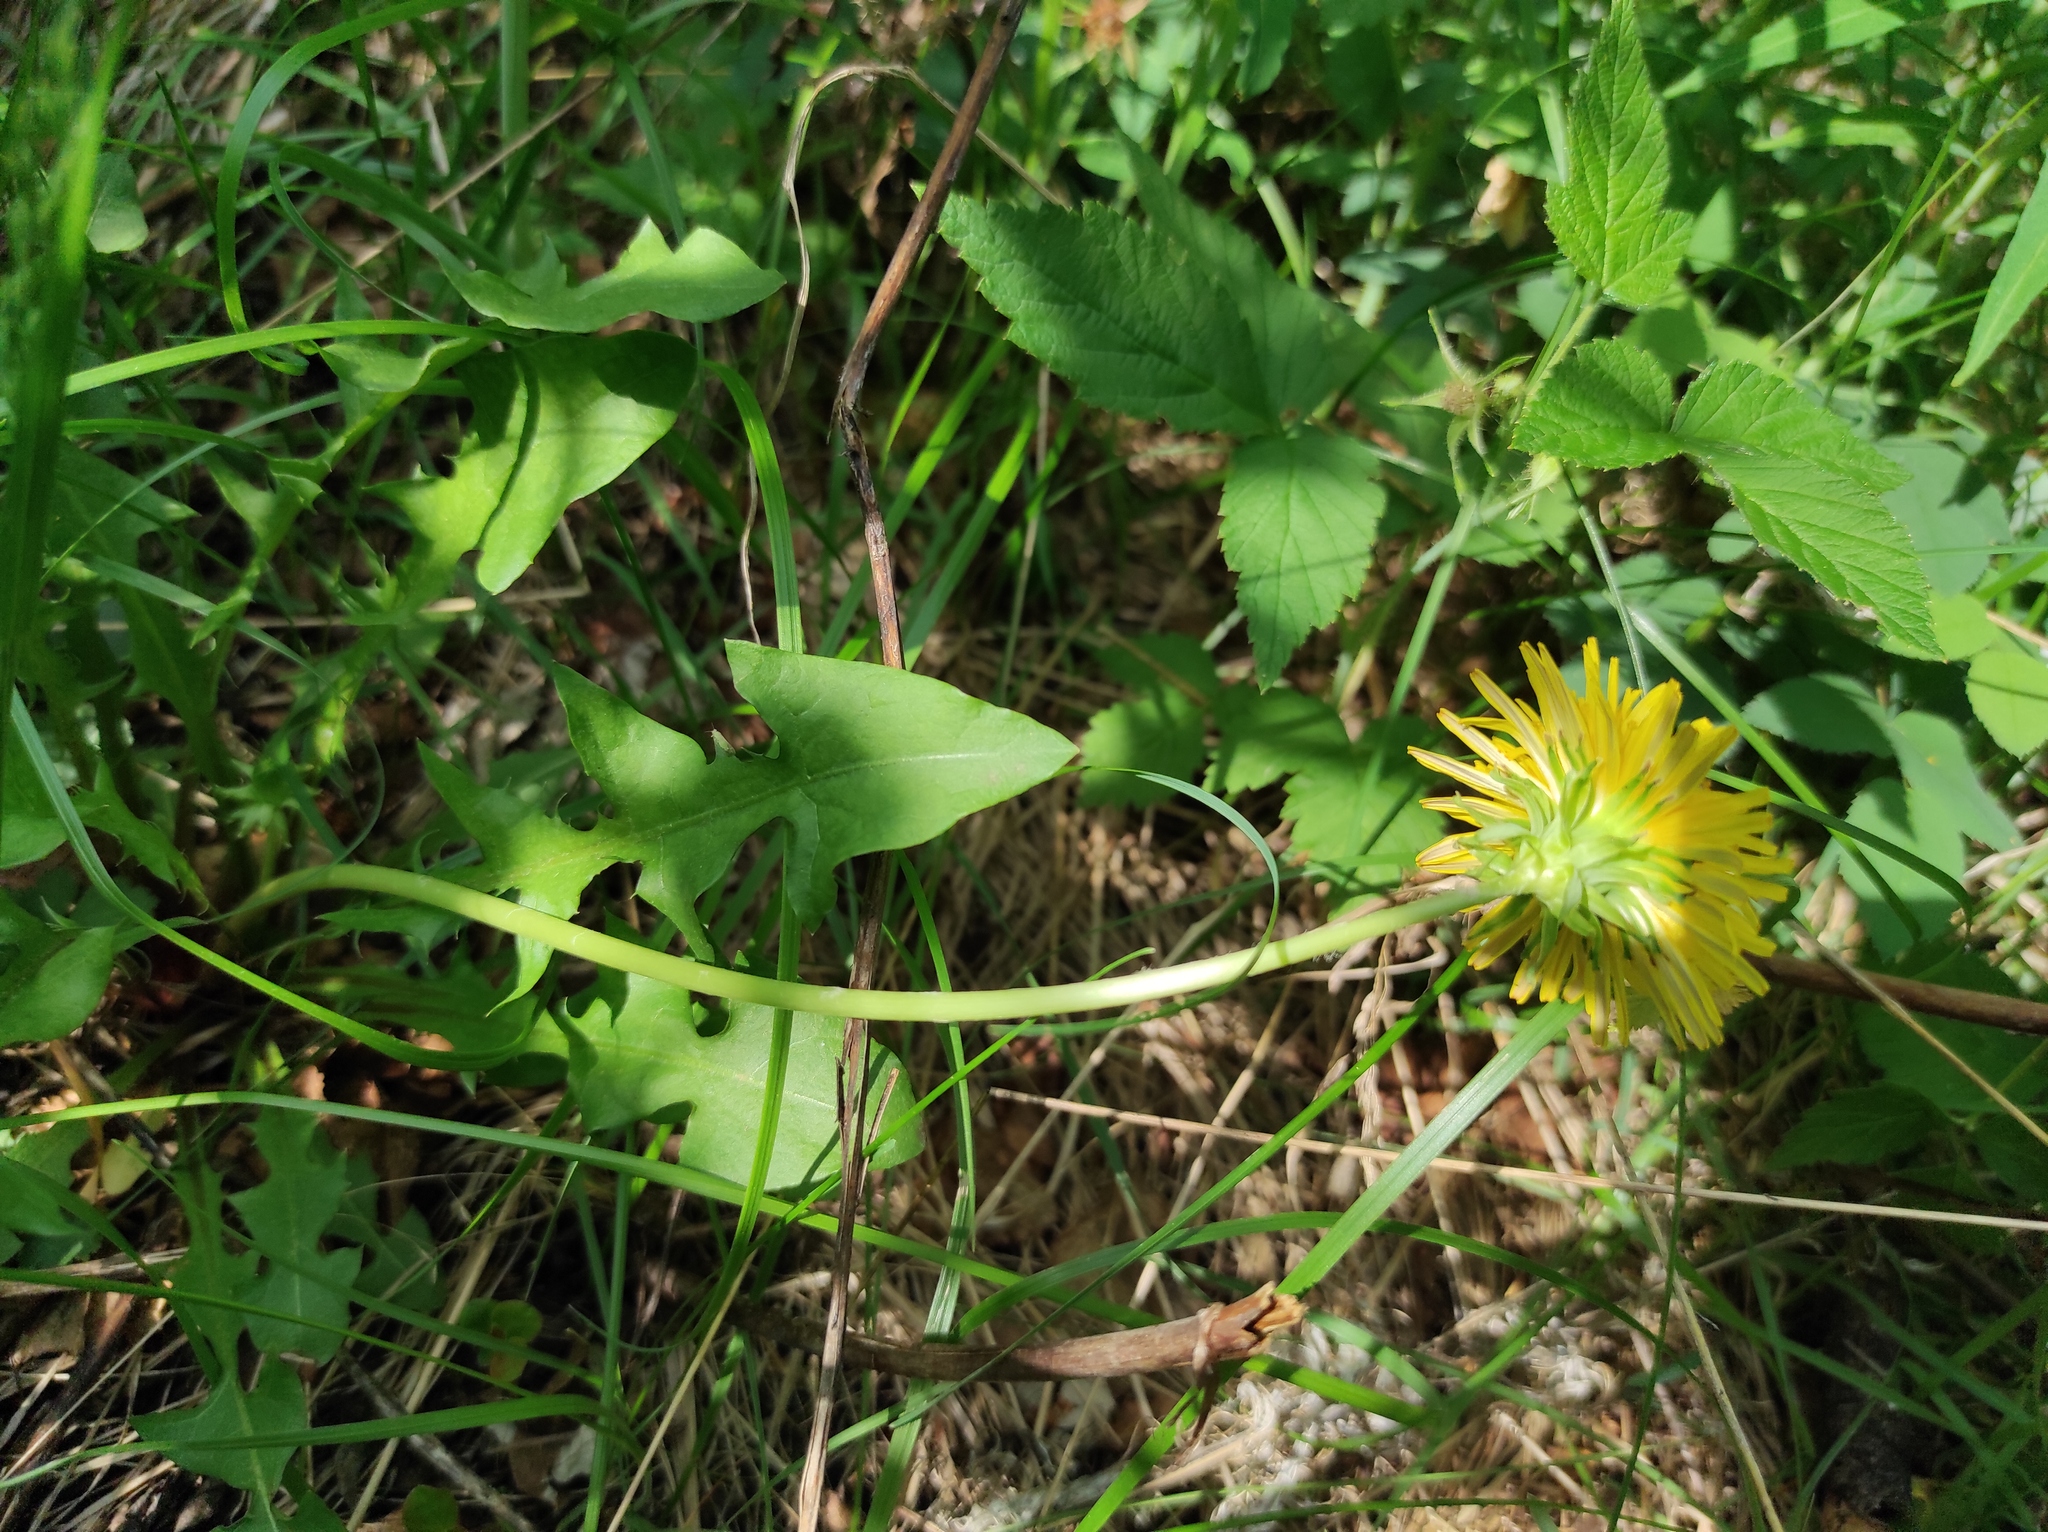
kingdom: Plantae
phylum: Tracheophyta
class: Magnoliopsida
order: Rosales
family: Rosaceae
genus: Rubus
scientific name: Rubus sachalinensis
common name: Red raspberry
